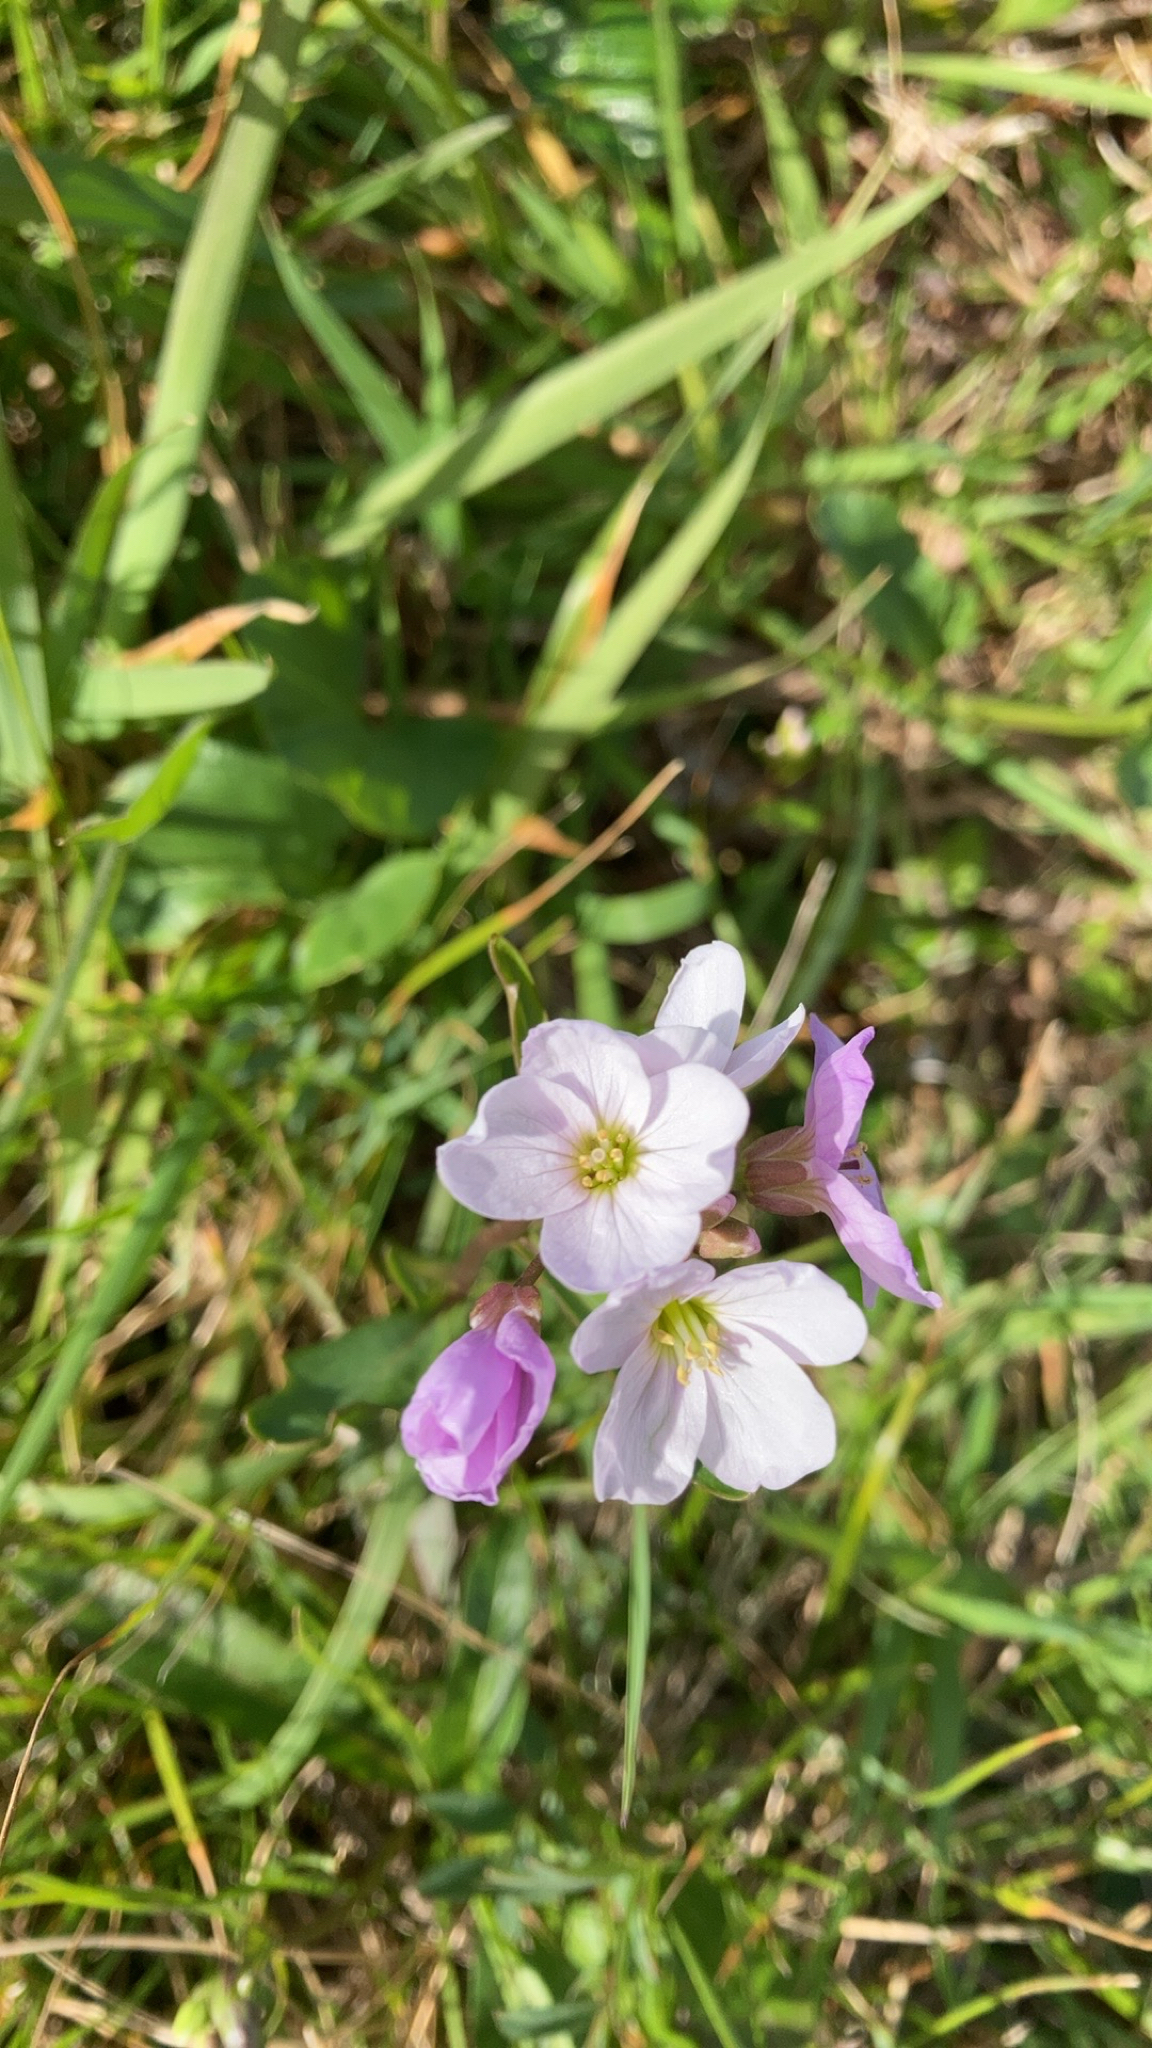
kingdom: Plantae
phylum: Tracheophyta
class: Magnoliopsida
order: Brassicales
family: Brassicaceae
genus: Cardamine
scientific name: Cardamine pratensis
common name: Cuckoo flower
